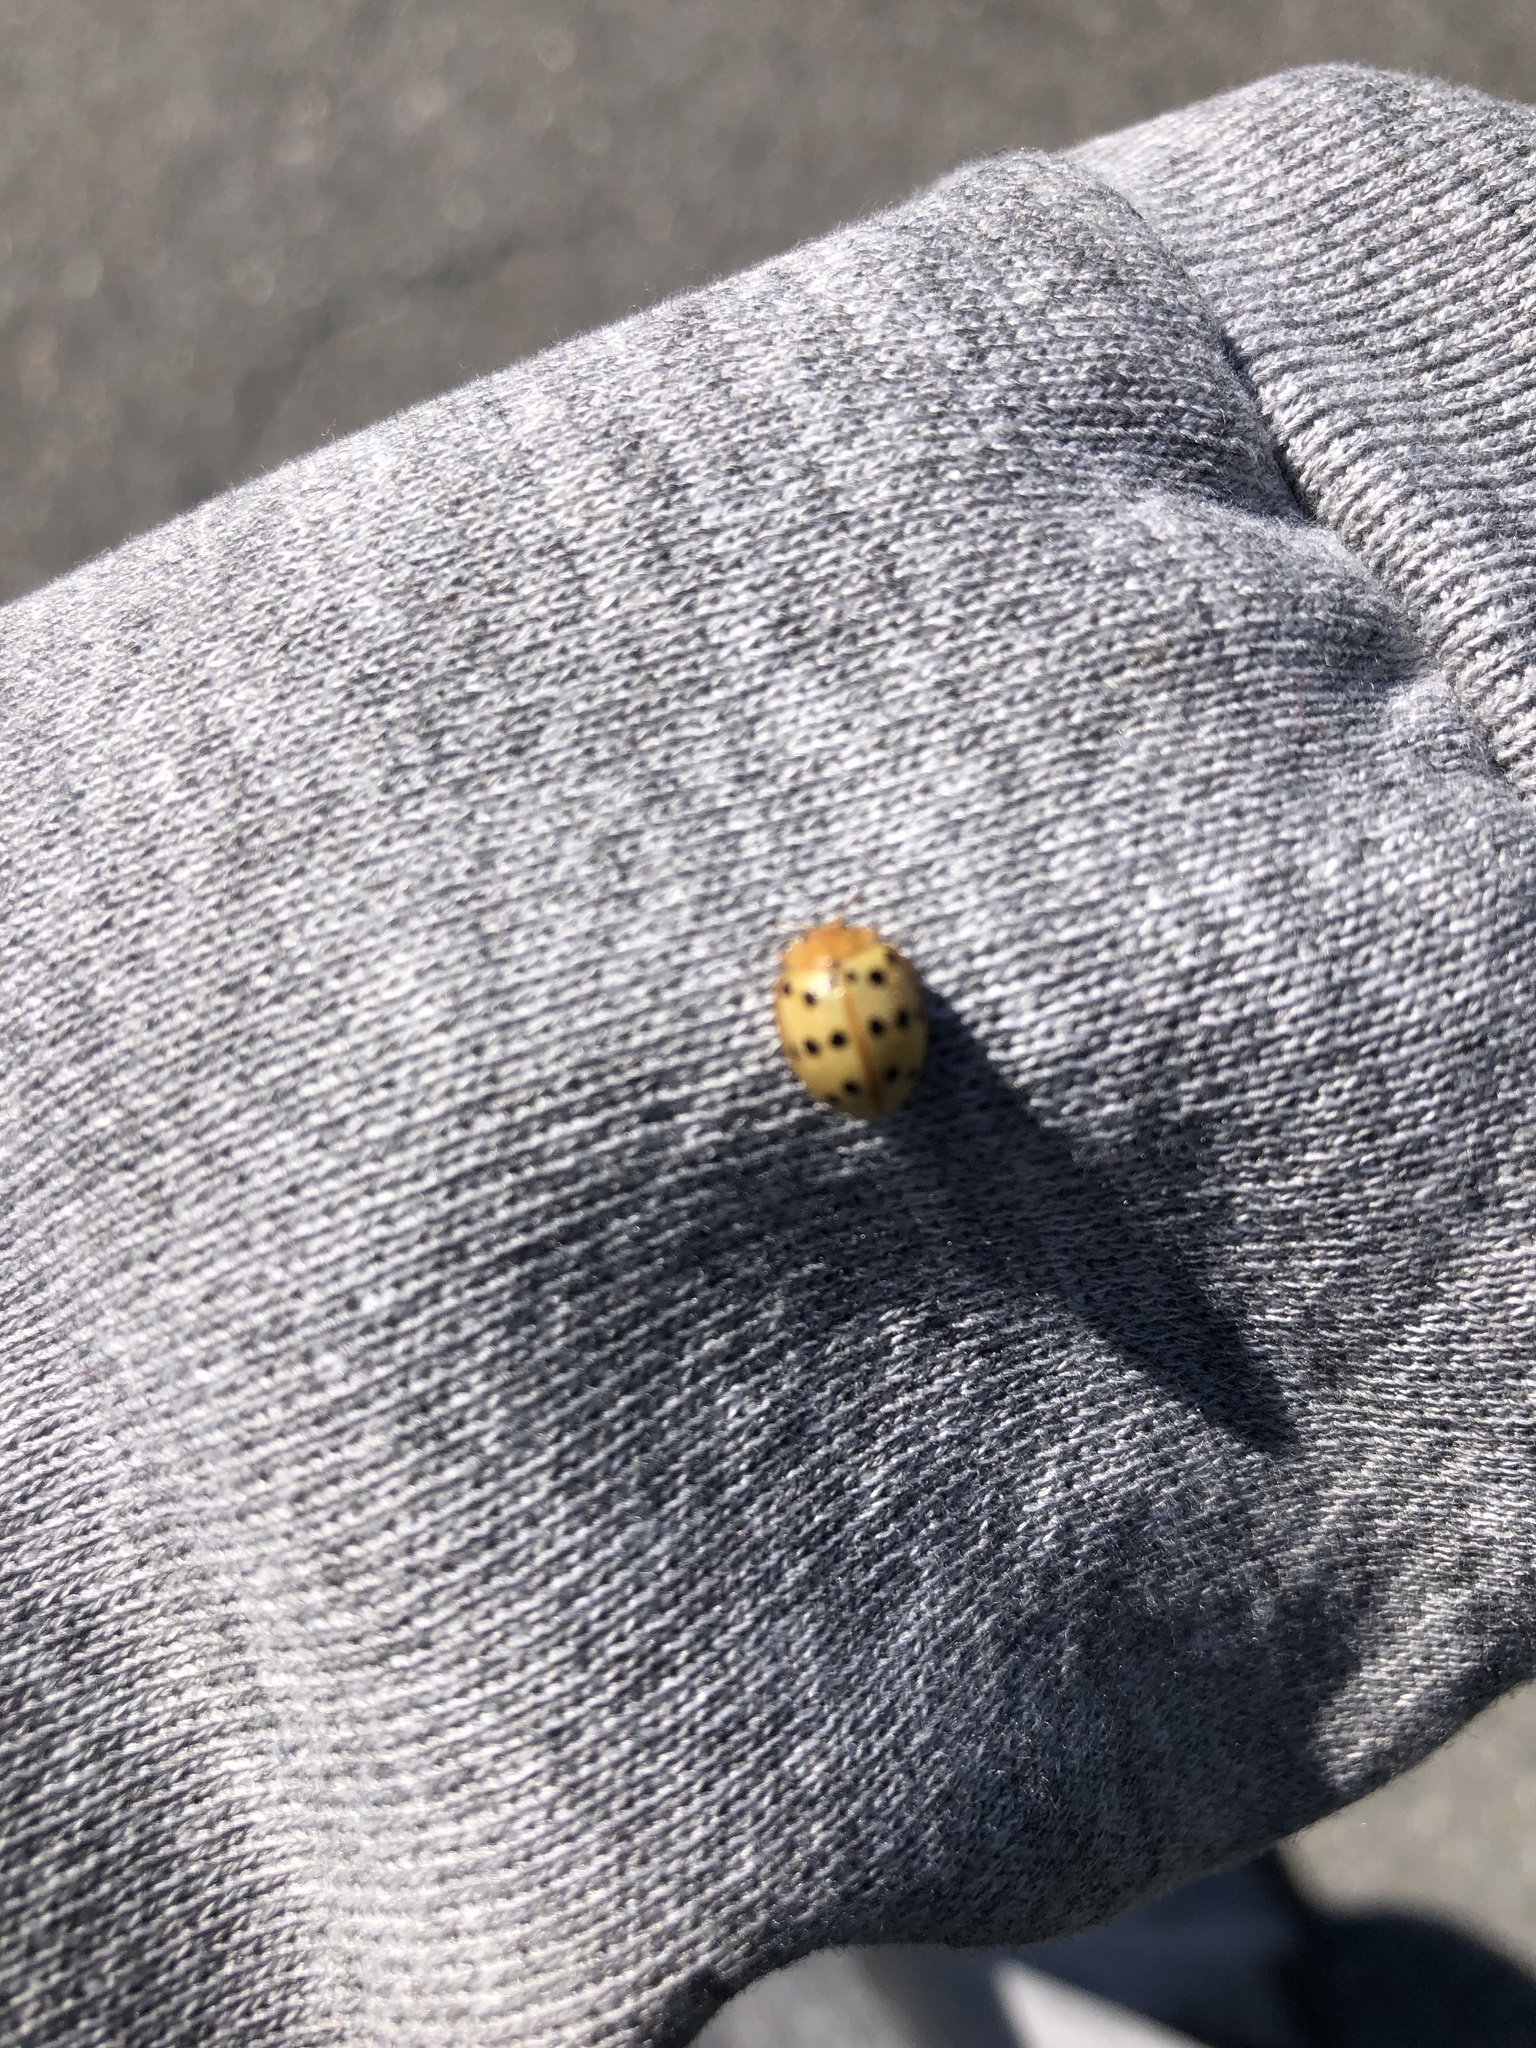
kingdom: Animalia
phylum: Arthropoda
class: Insecta
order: Coleoptera
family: Coccinellidae
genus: Epilachna
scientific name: Epilachna varivestis
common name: Ladybird beetle
